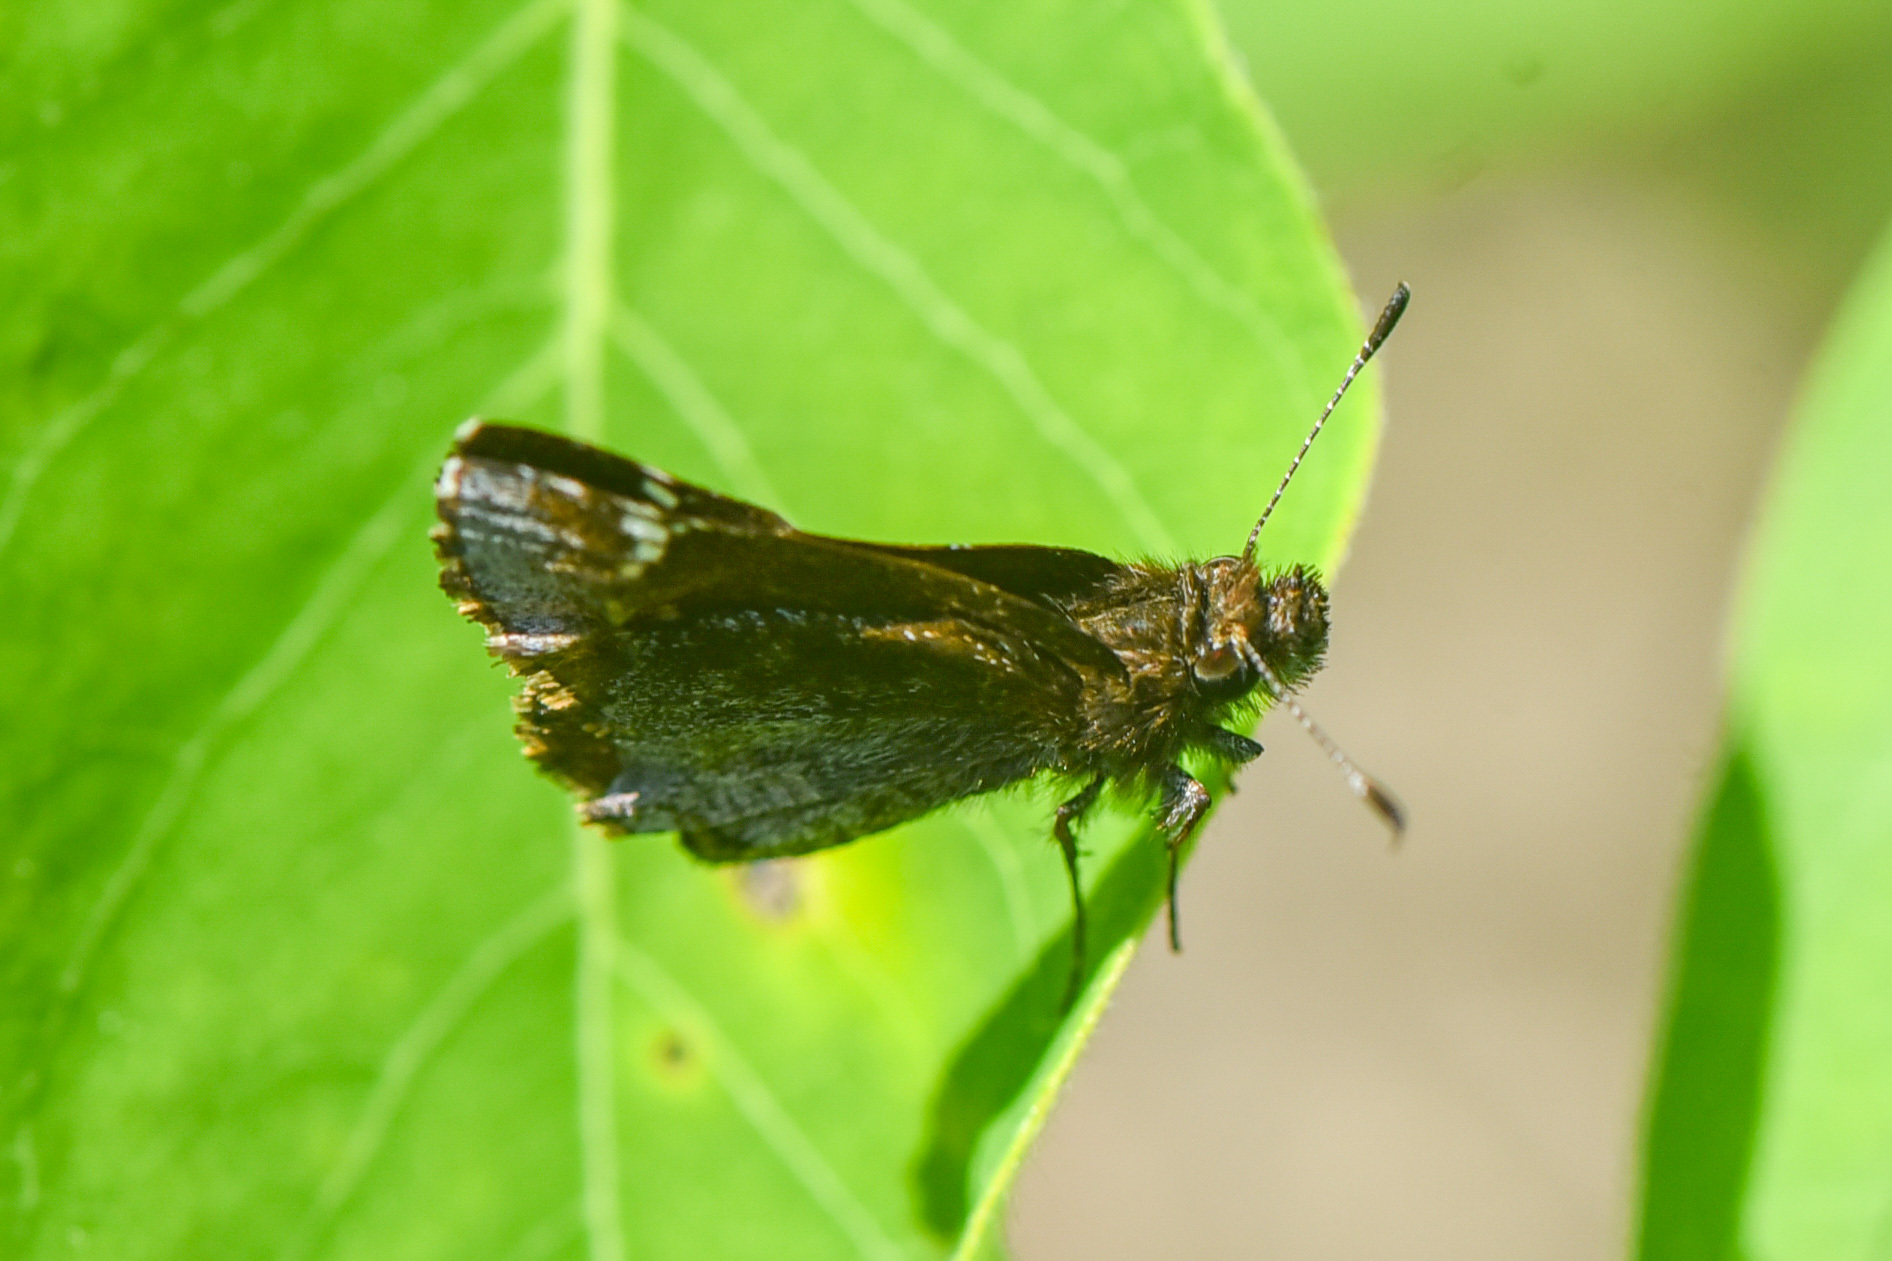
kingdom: Animalia
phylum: Arthropoda
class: Insecta
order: Lepidoptera
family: Hesperiidae
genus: Mastor
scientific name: Mastor vialis
